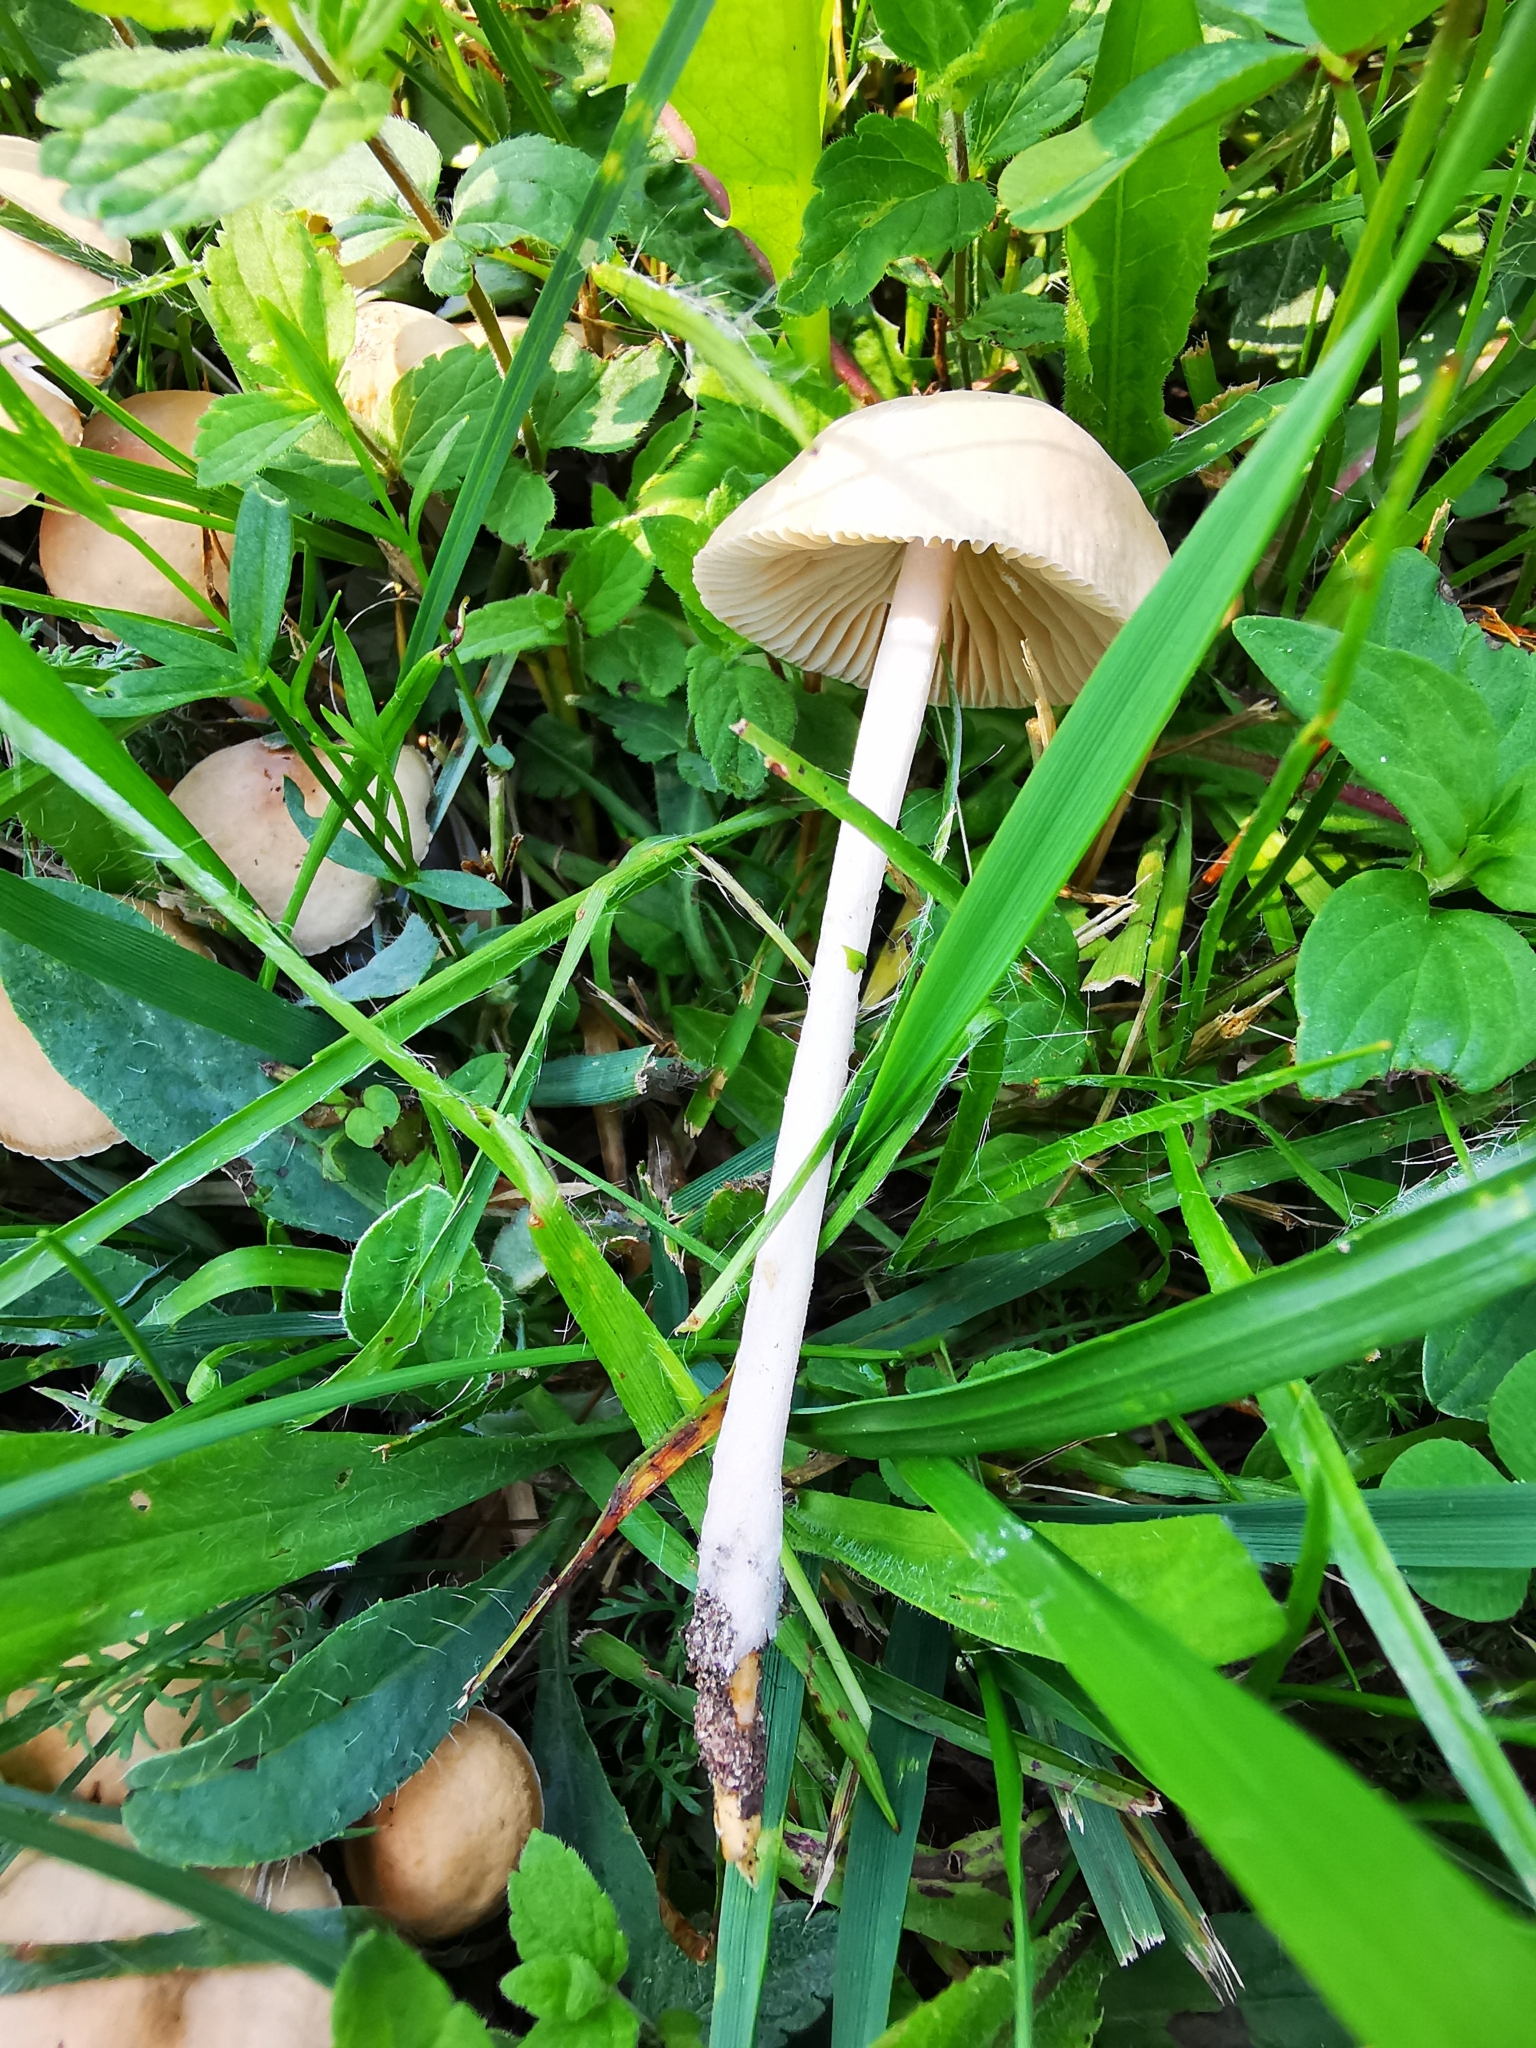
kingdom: Fungi
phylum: Basidiomycota
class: Agaricomycetes
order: Agaricales
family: Marasmiaceae
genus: Marasmius
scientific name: Marasmius oreades
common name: Fairy ring champignon
